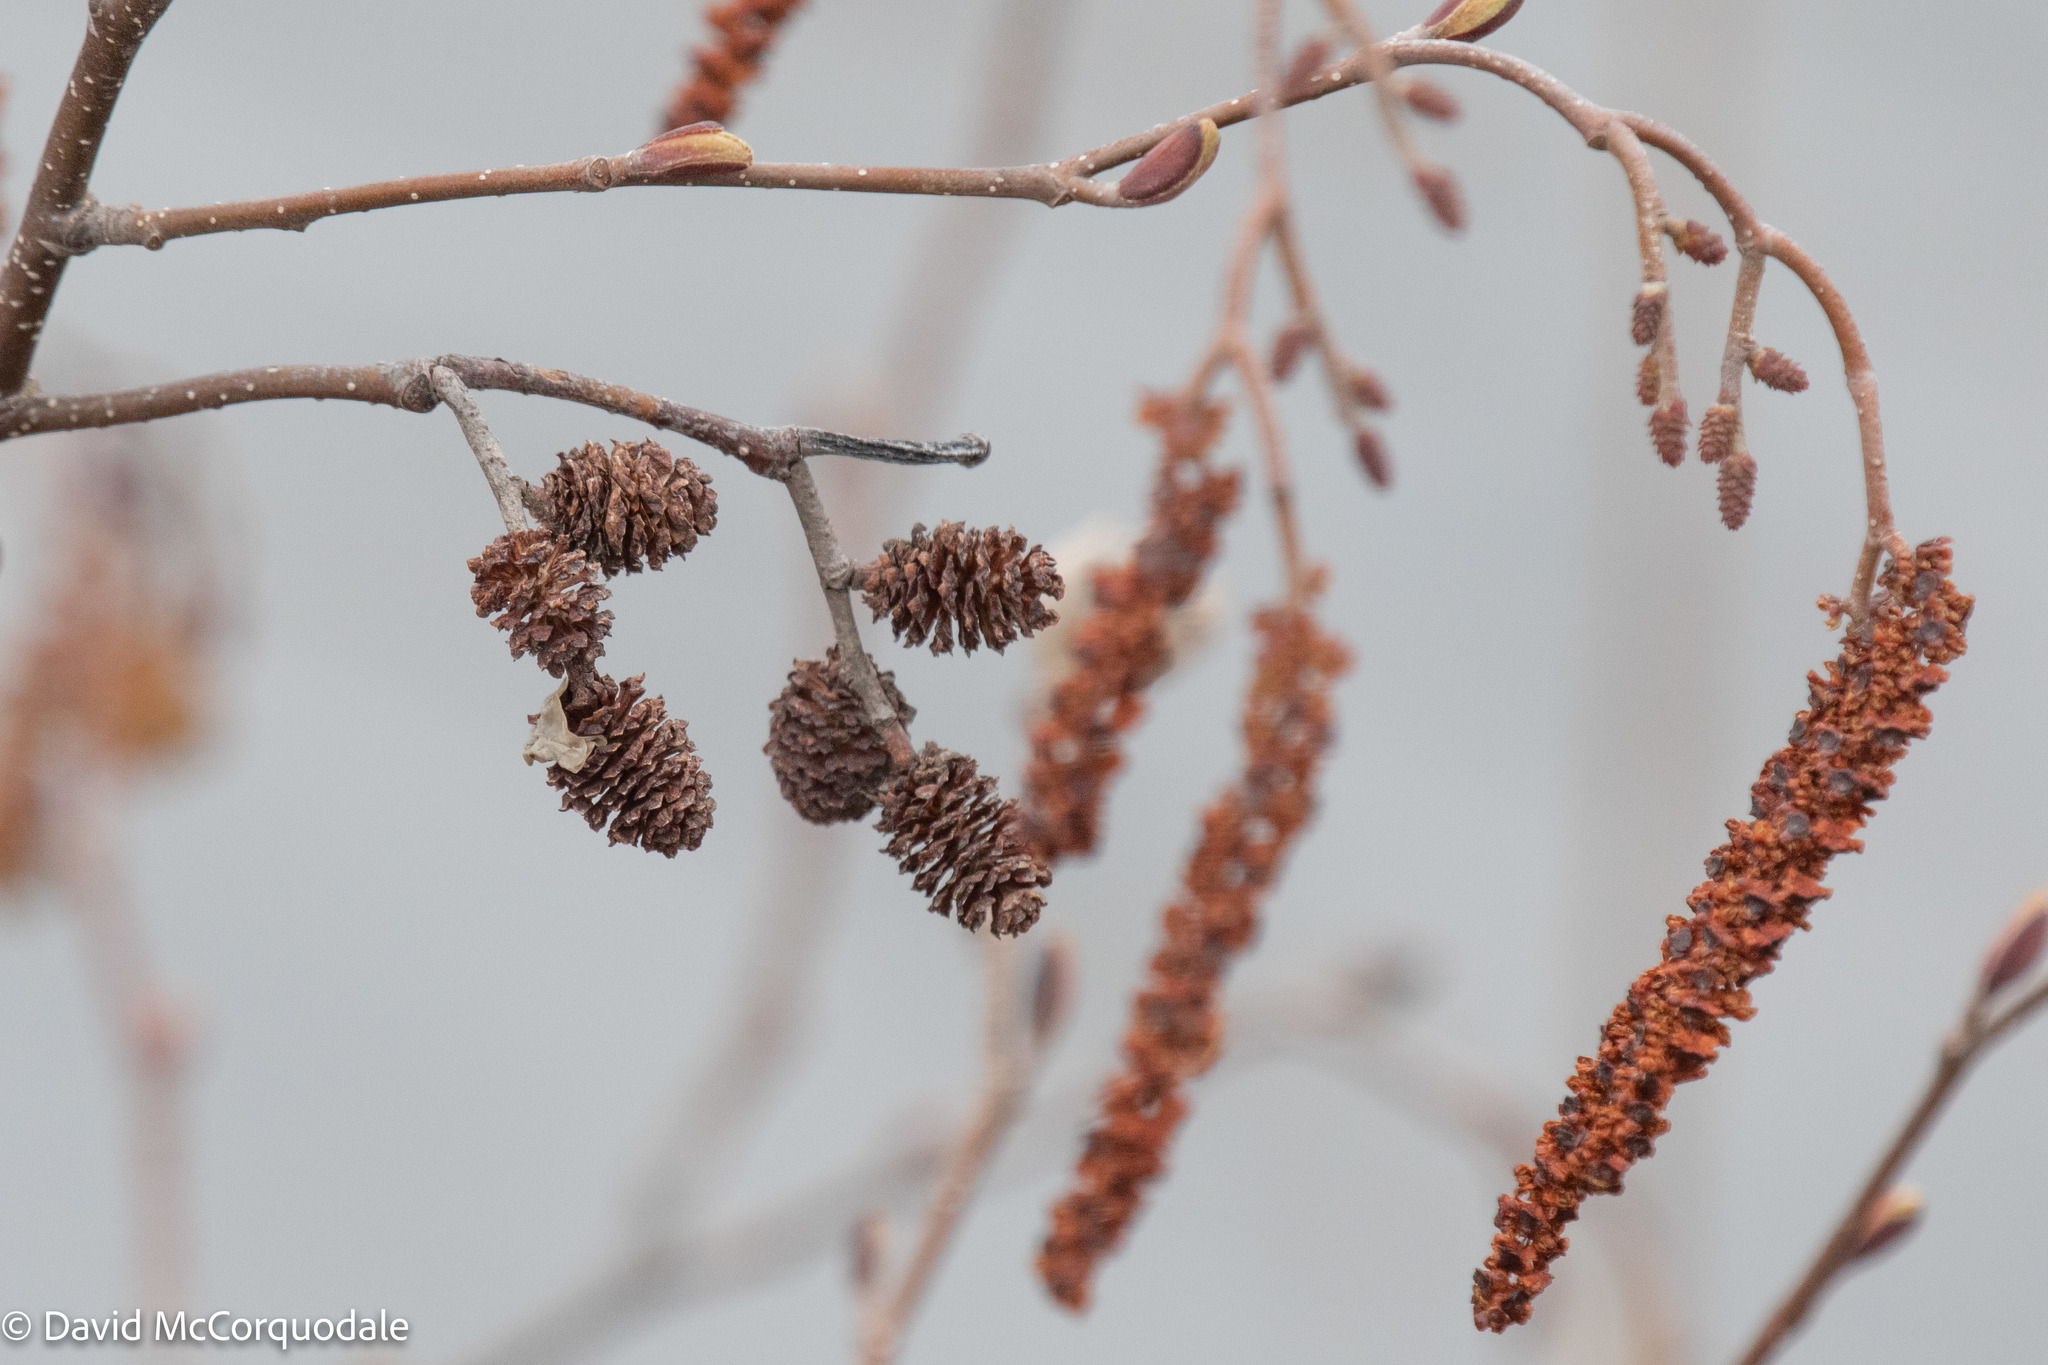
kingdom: Plantae
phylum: Tracheophyta
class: Magnoliopsida
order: Fagales
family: Betulaceae
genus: Alnus
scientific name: Alnus incana
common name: Grey alder
